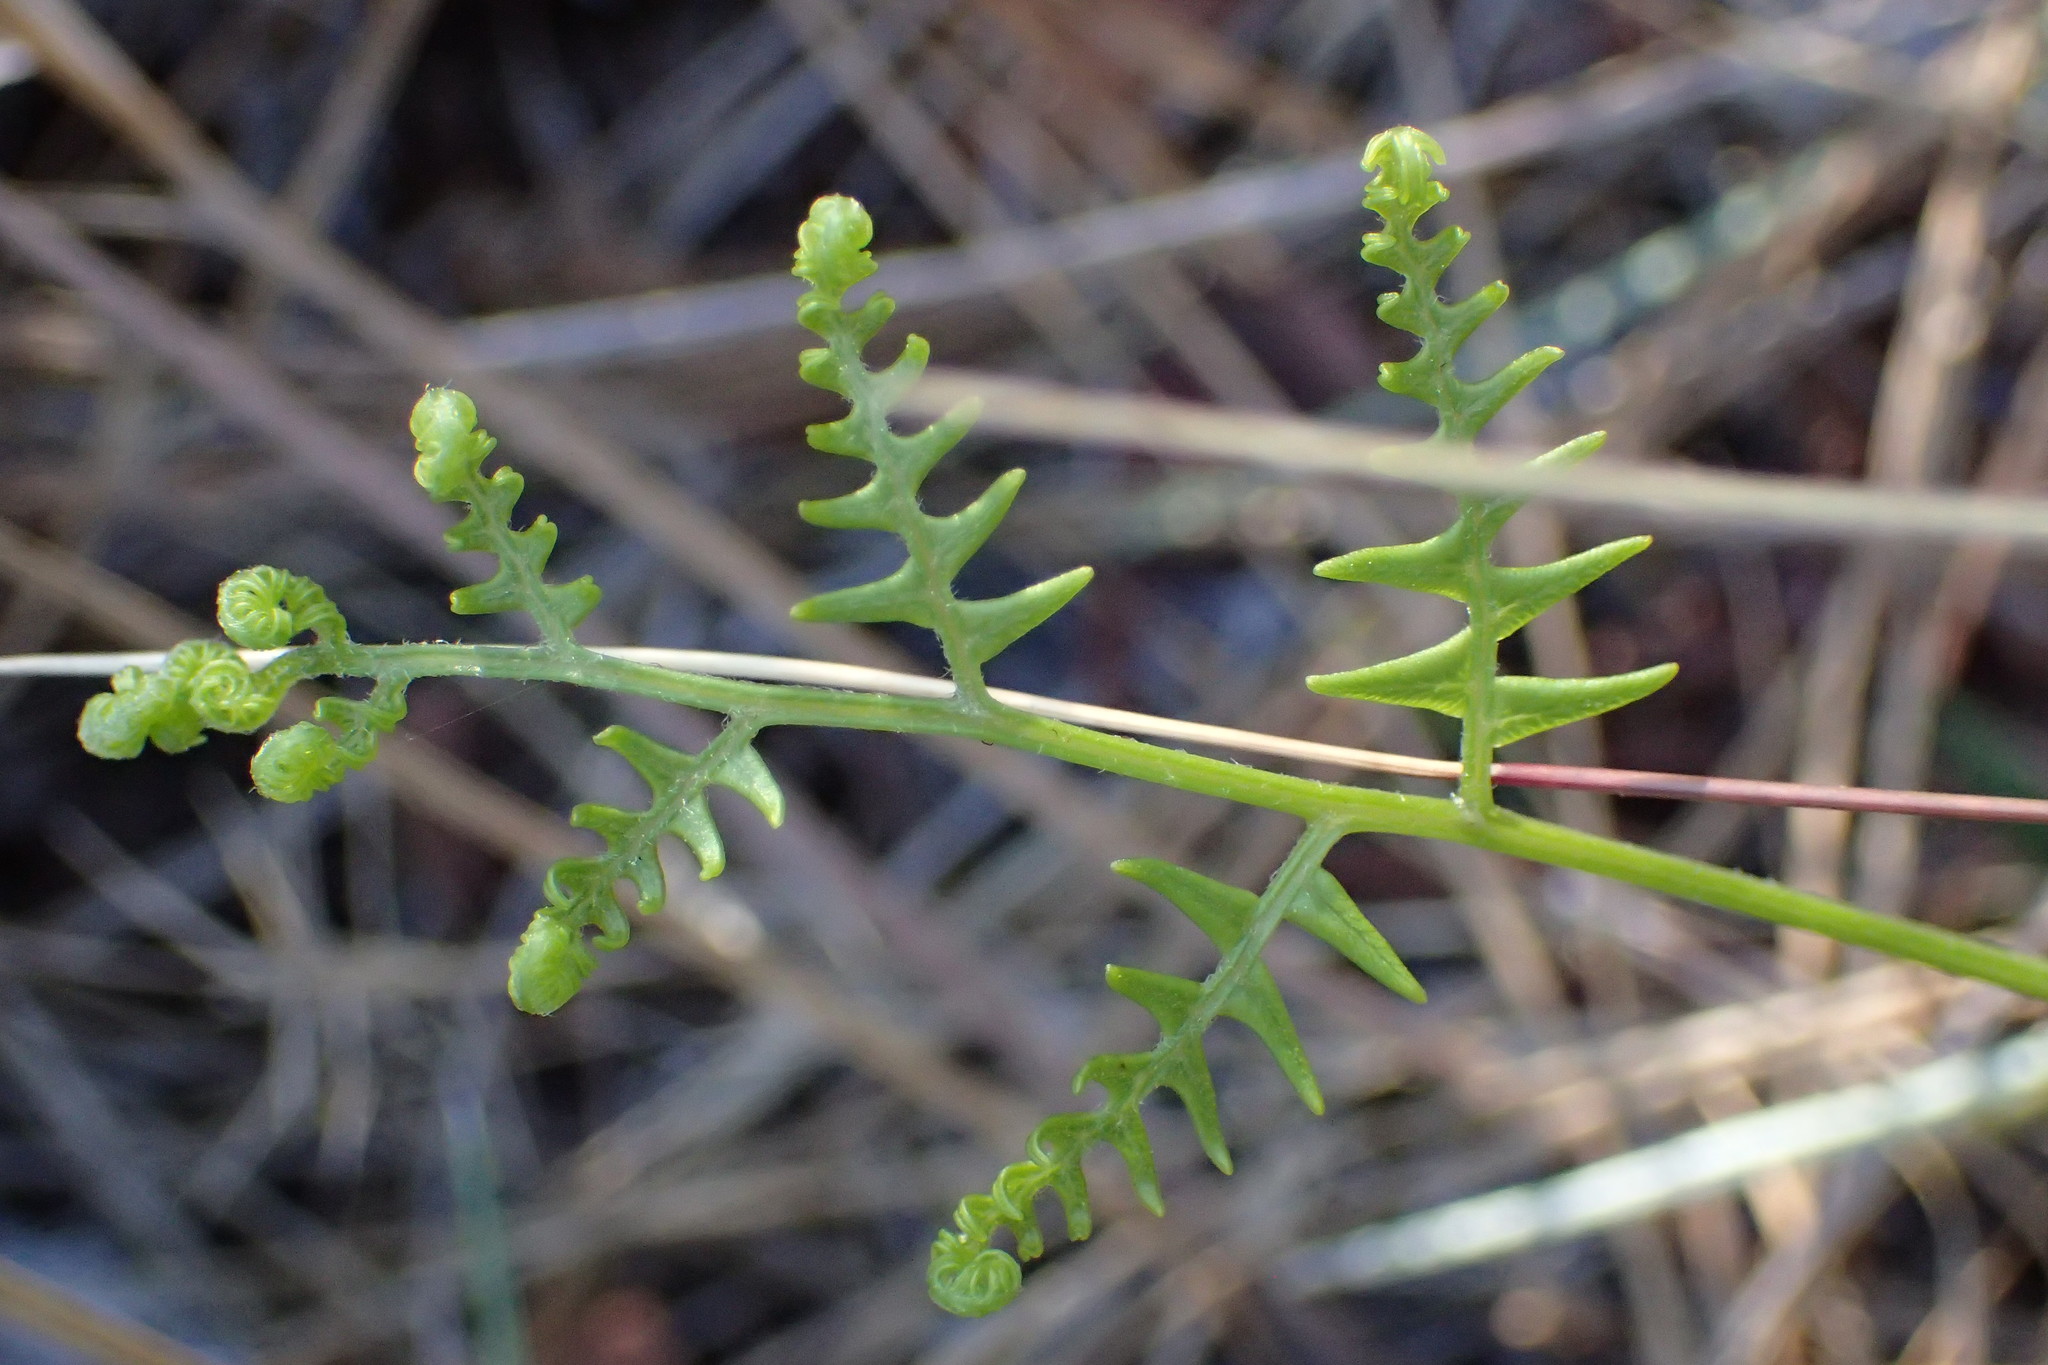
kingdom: Plantae
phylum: Tracheophyta
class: Polypodiopsida
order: Polypodiales
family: Dennstaedtiaceae
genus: Pteridium
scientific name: Pteridium aquilinum
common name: Bracken
